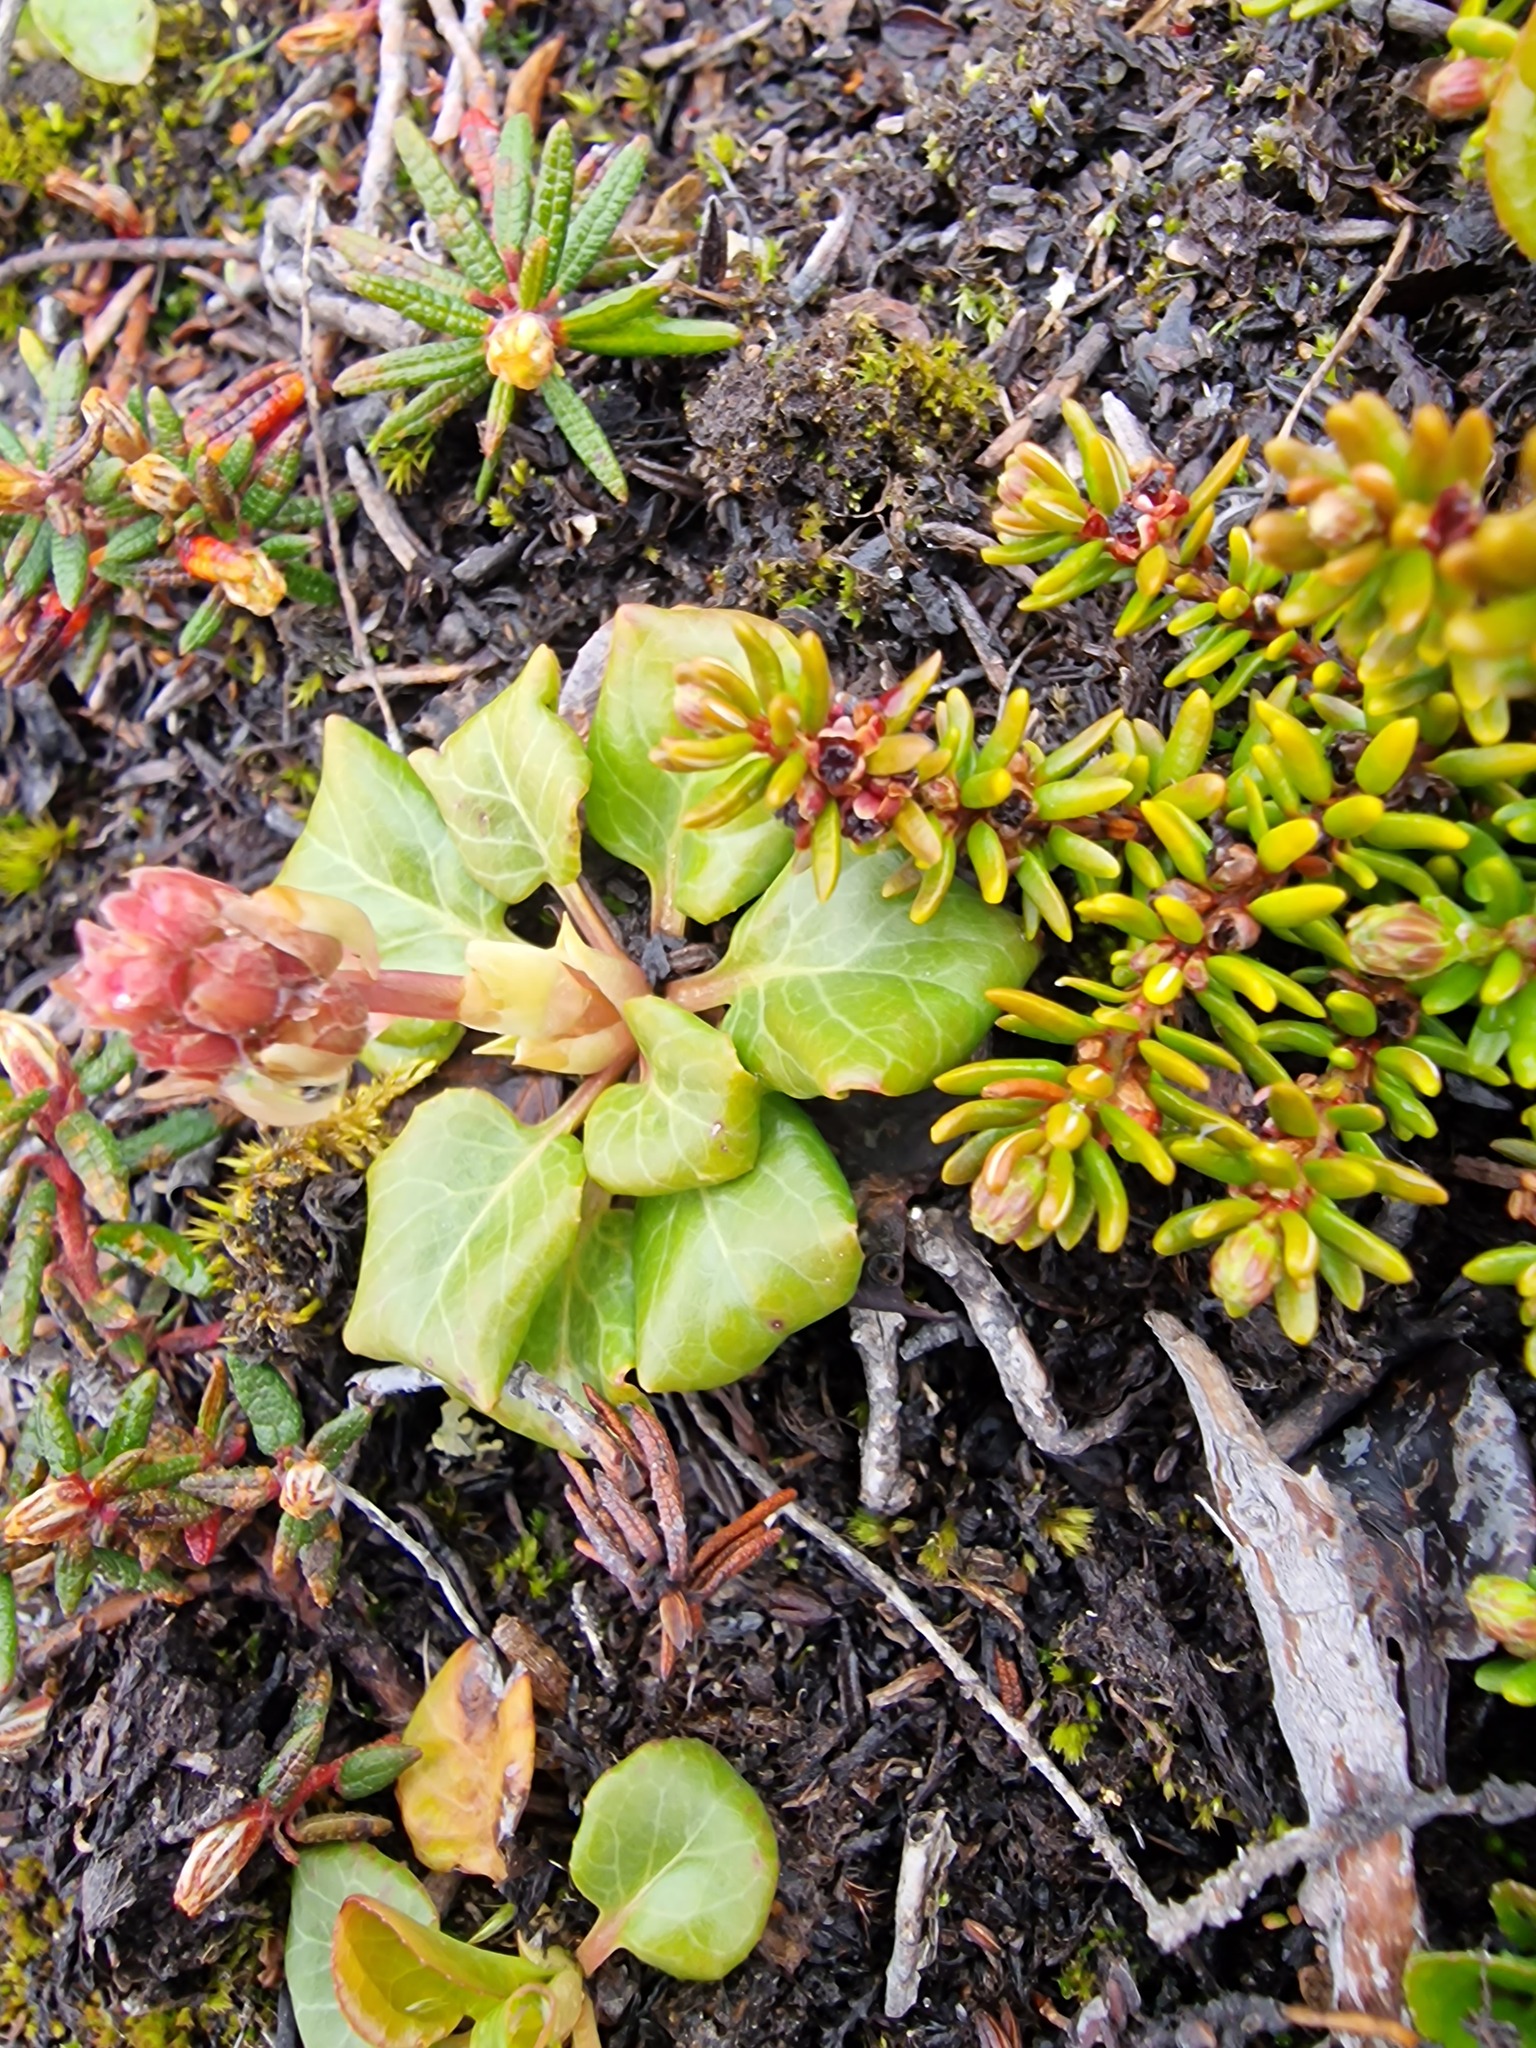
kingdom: Plantae
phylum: Tracheophyta
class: Magnoliopsida
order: Ericales
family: Ericaceae
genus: Pyrola
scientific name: Pyrola grandiflora
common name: Arctic pyrola
